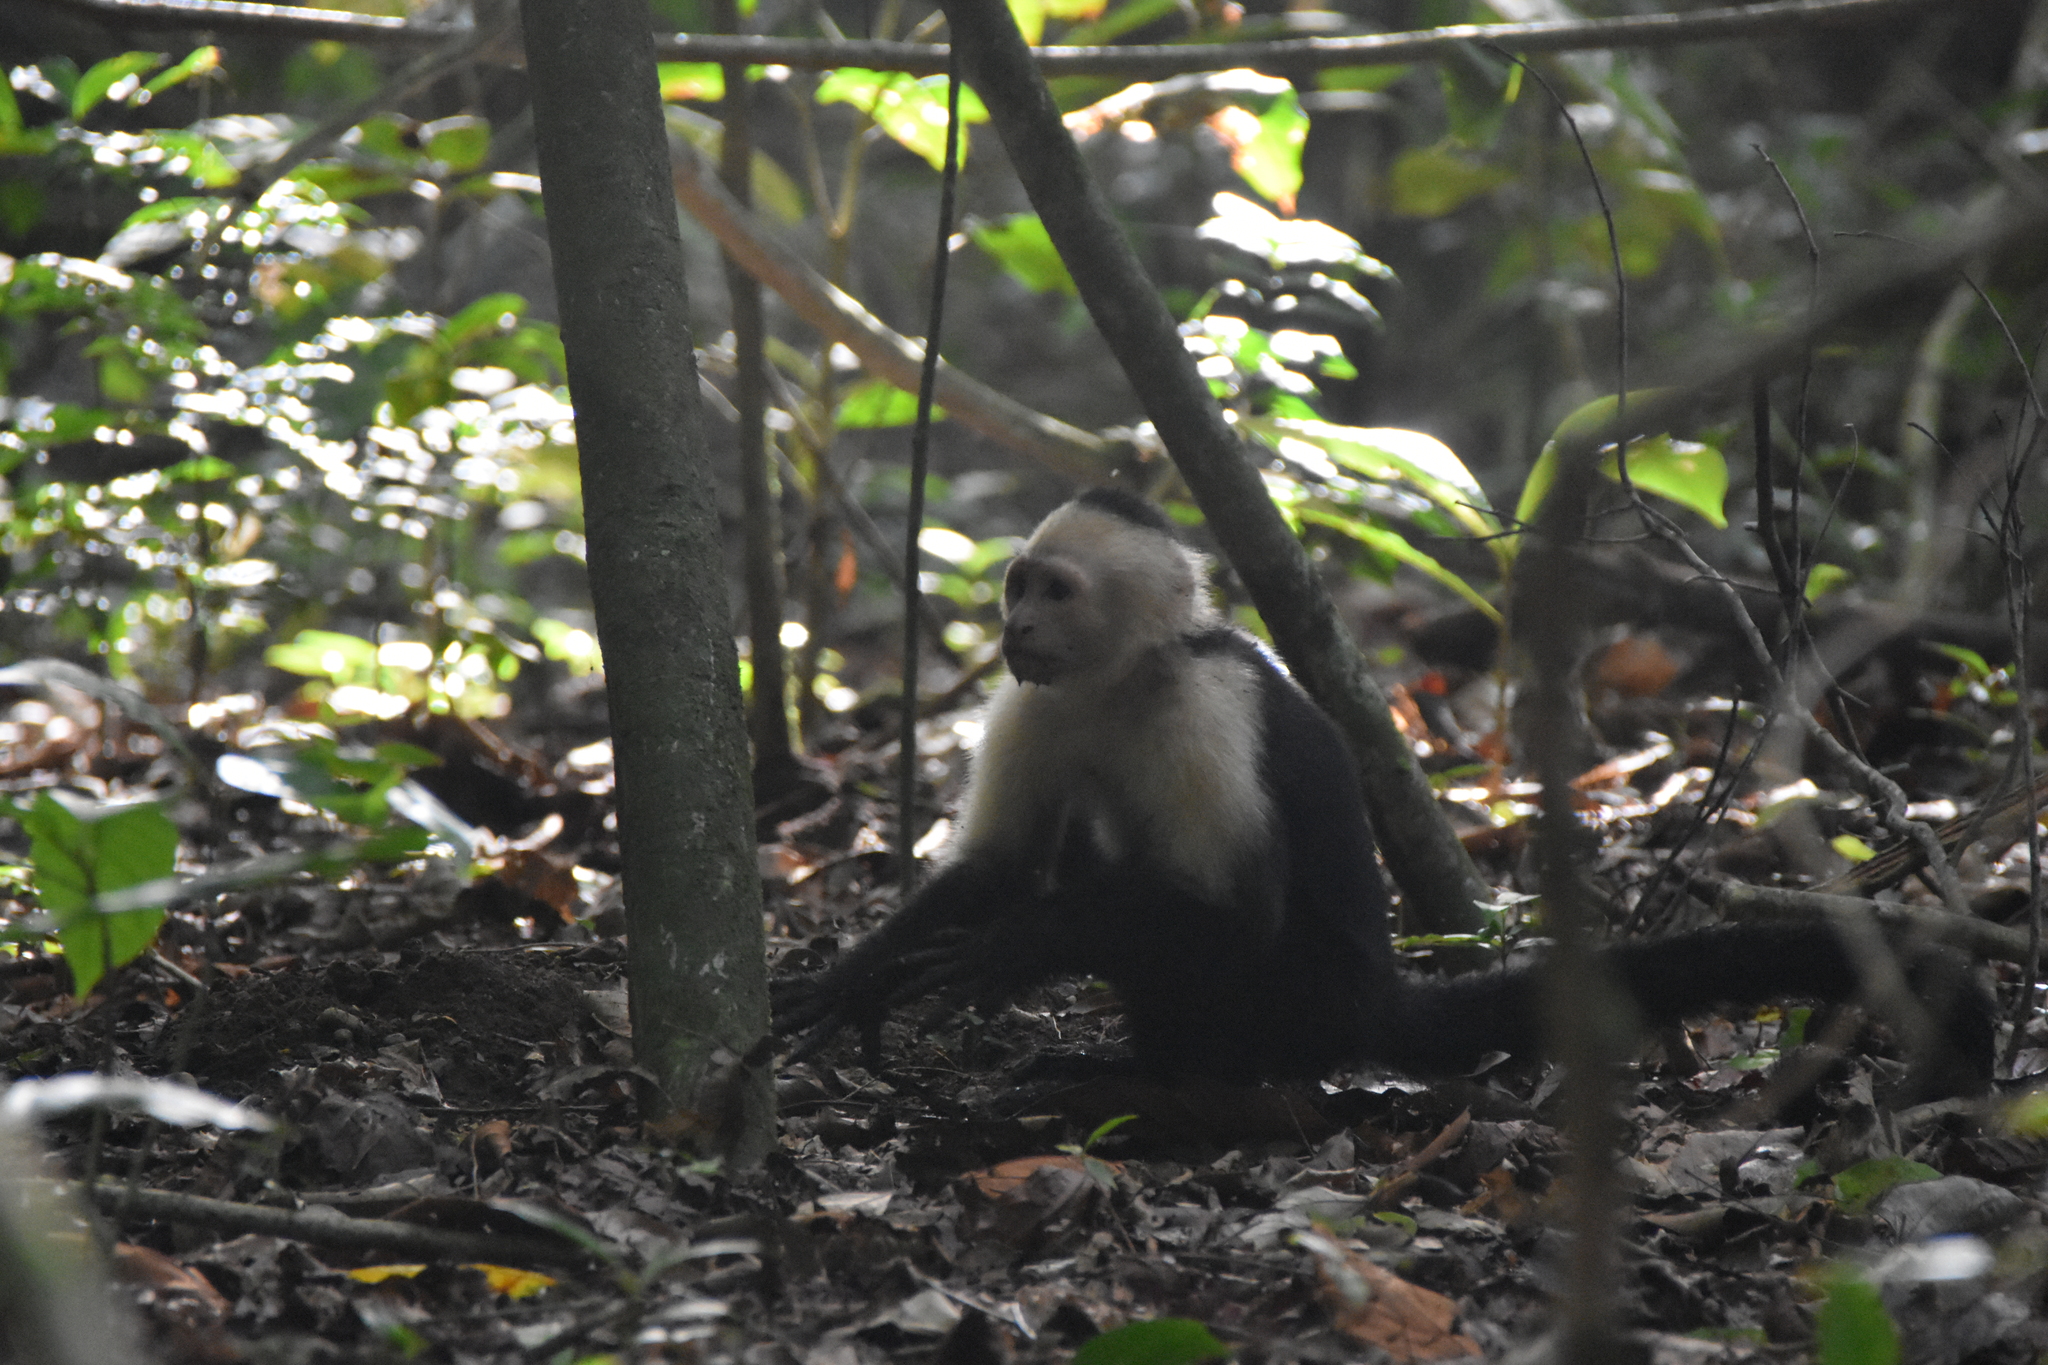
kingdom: Animalia
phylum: Chordata
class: Mammalia
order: Primates
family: Cebidae
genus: Cebus
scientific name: Cebus imitator
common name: Panamanian white-faced capuchin
